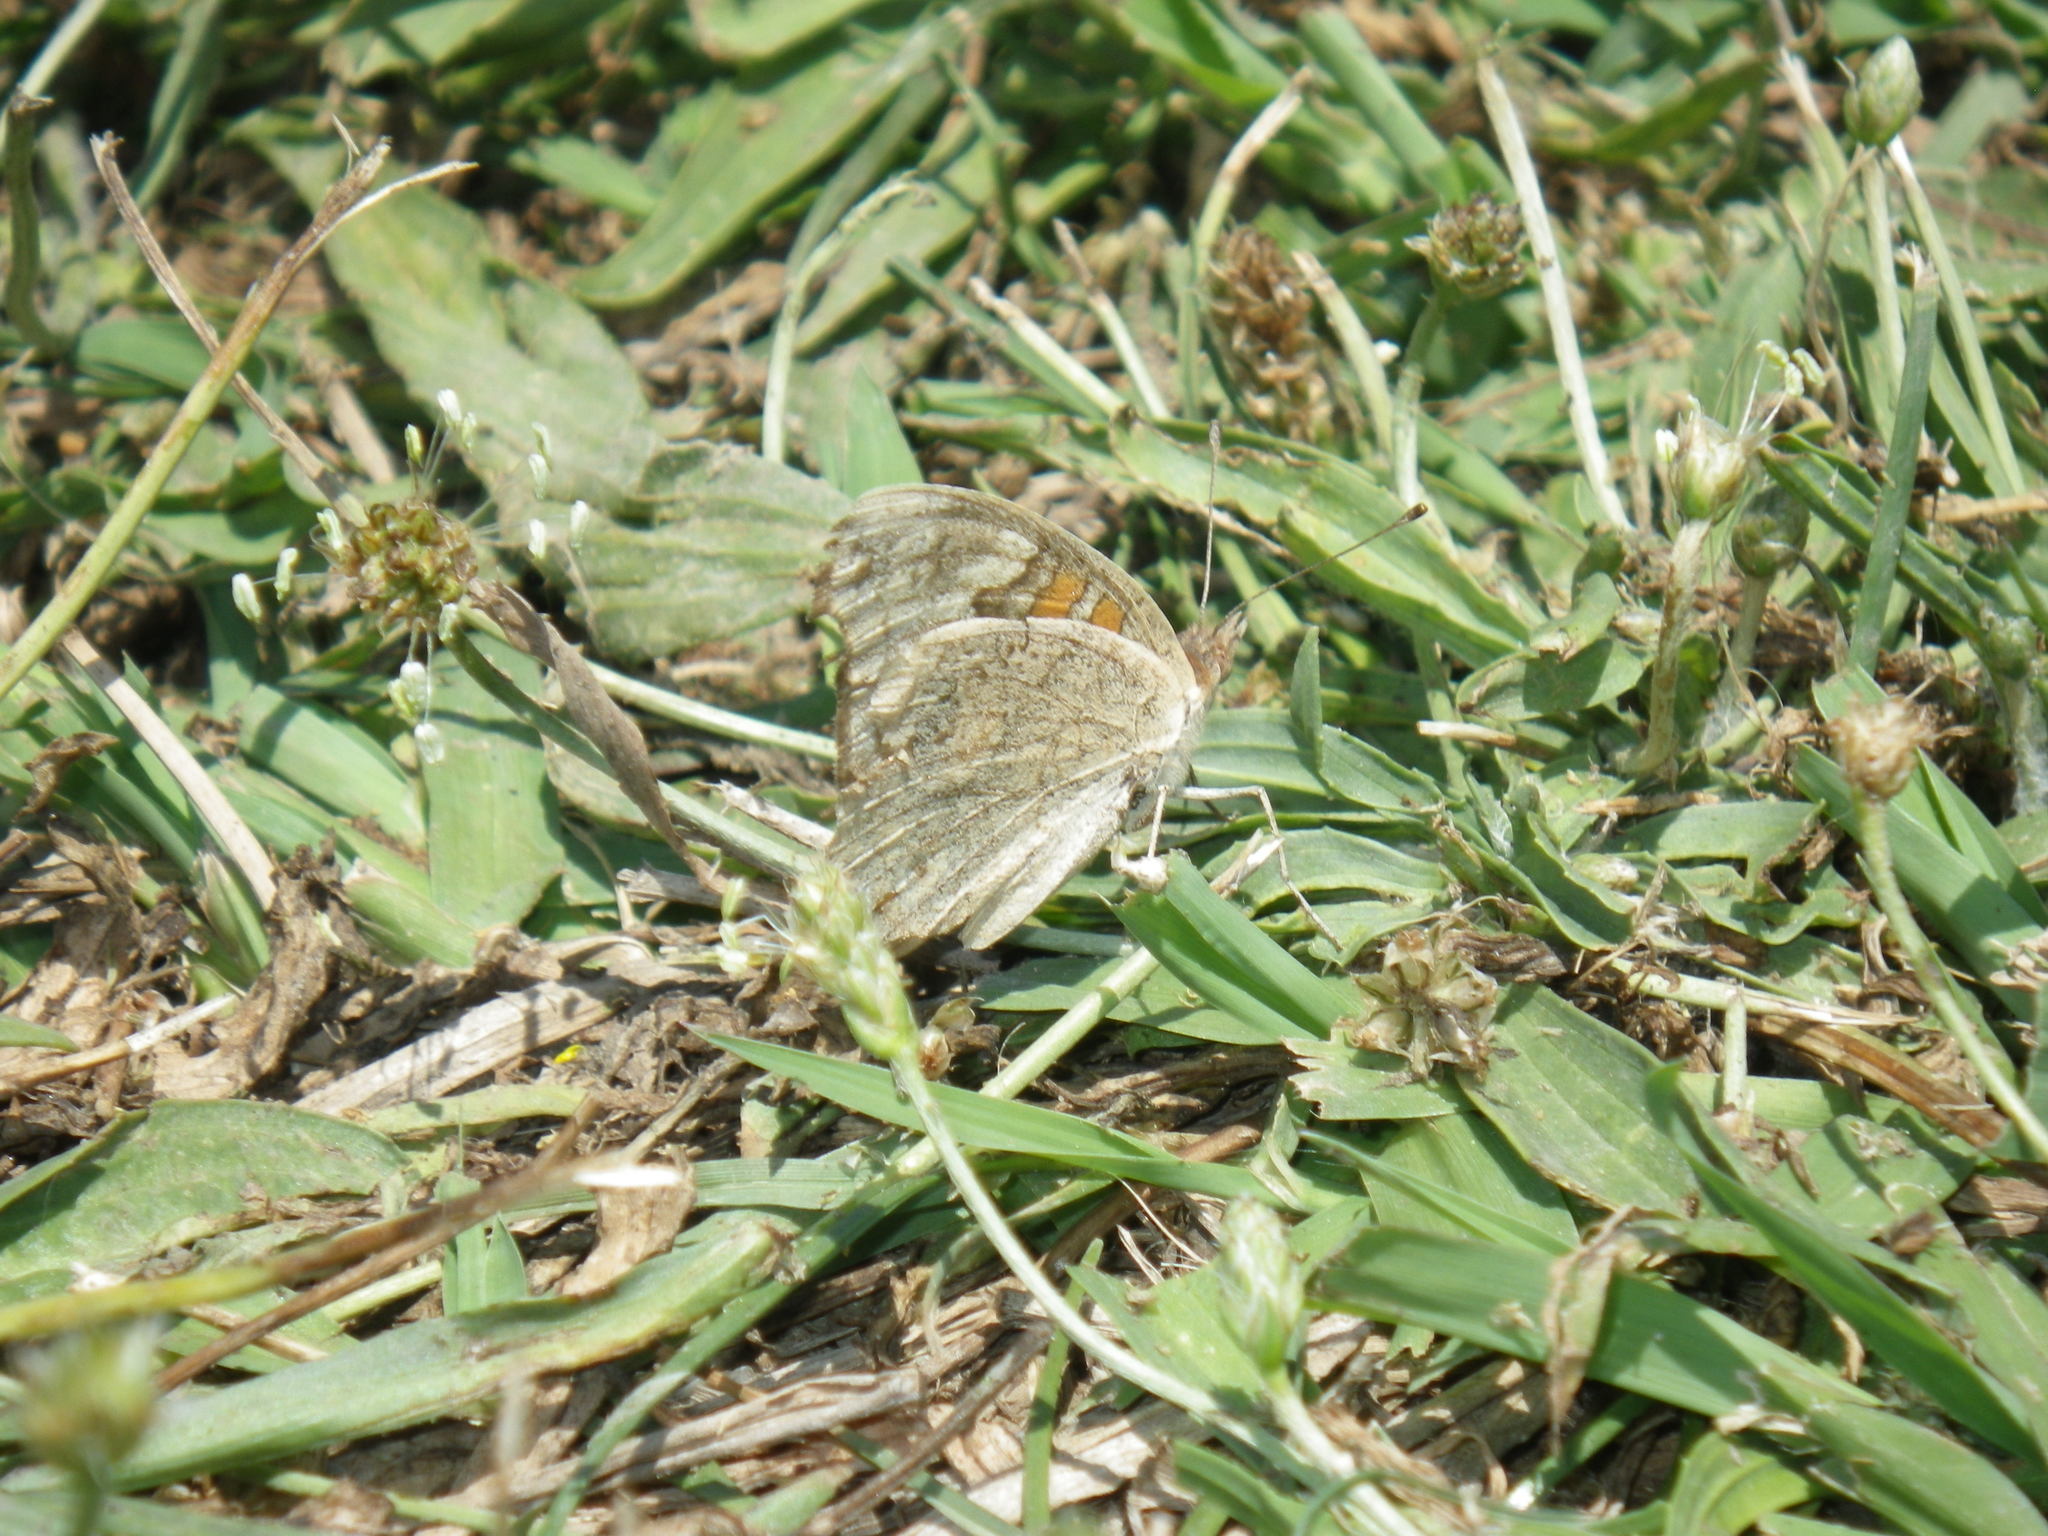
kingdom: Animalia
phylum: Arthropoda
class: Insecta
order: Lepidoptera
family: Nymphalidae
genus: Junonia
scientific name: Junonia grisea
